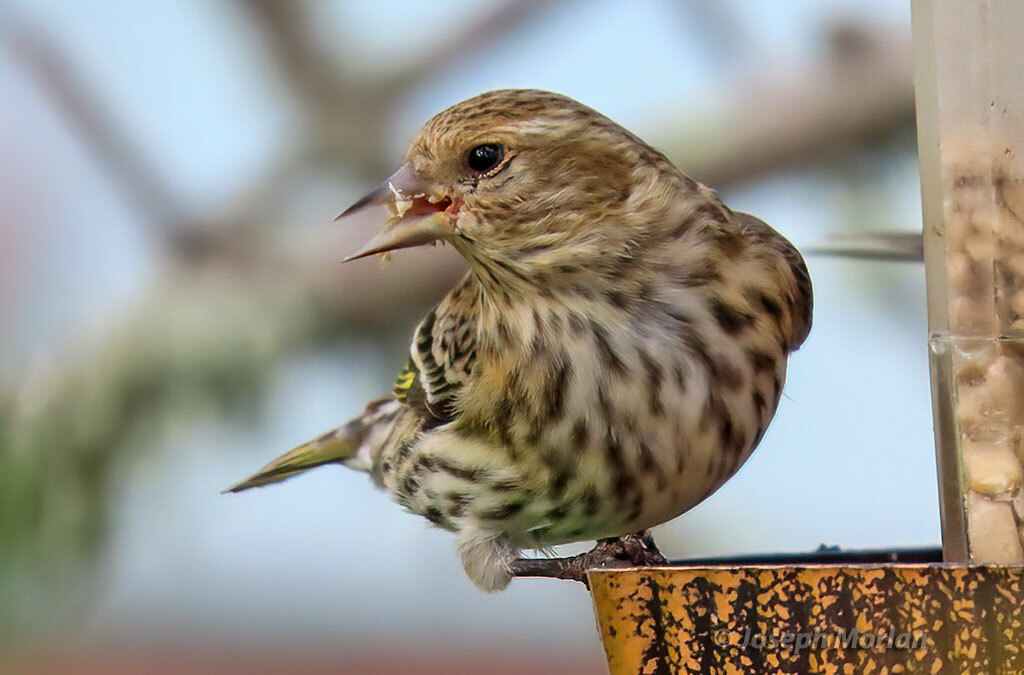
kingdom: Animalia
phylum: Chordata
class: Aves
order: Passeriformes
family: Fringillidae
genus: Spinus
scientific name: Spinus pinus
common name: Pine siskin
